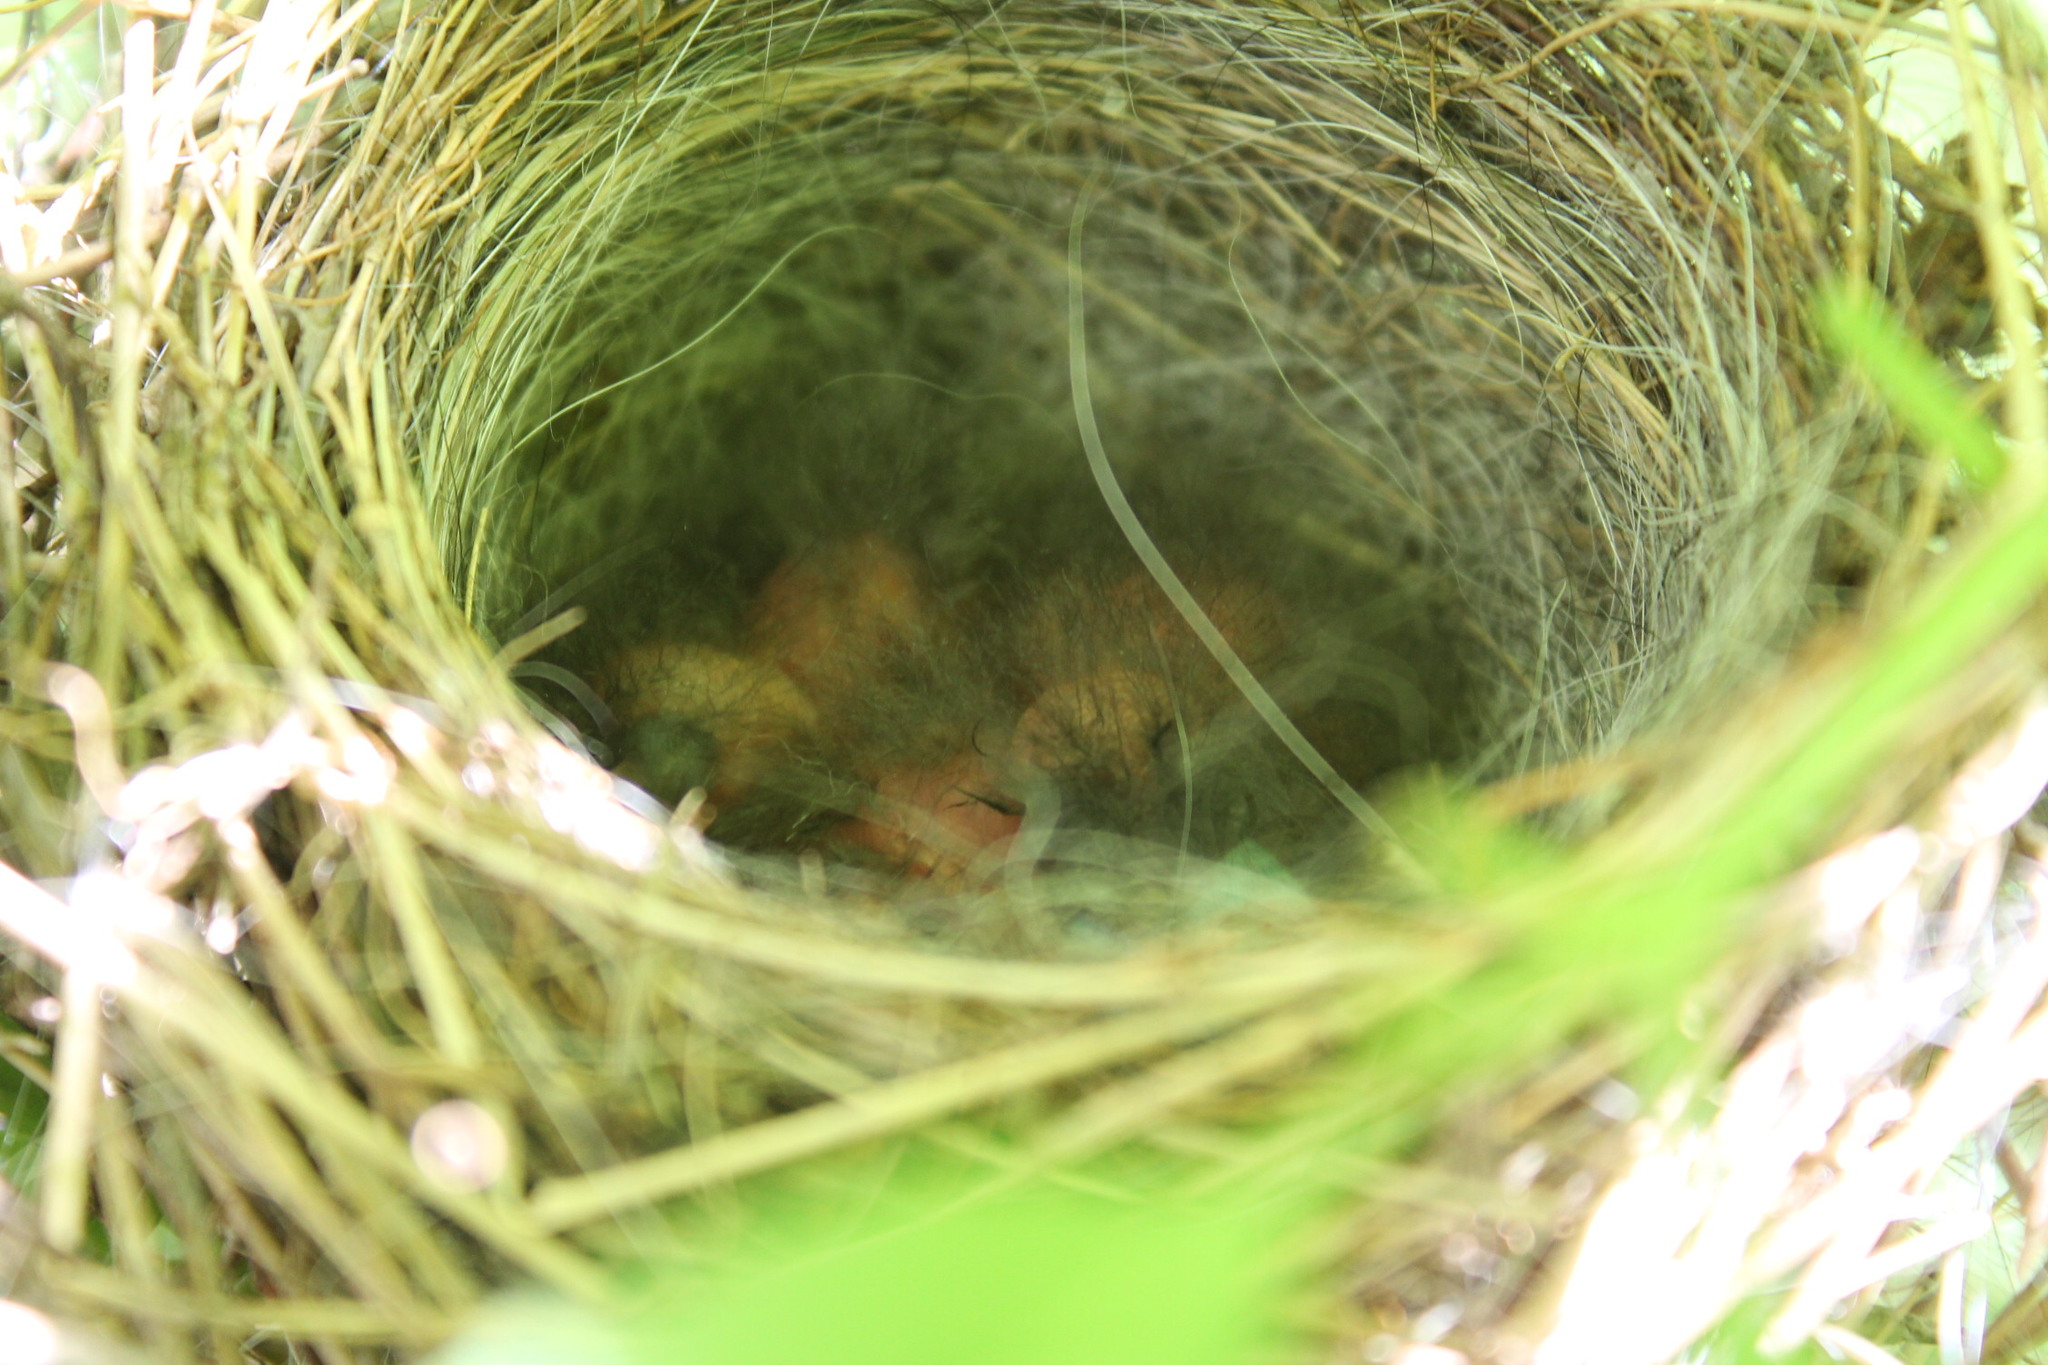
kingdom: Animalia
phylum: Chordata
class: Aves
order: Passeriformes
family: Passerellidae
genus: Spizella
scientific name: Spizella passerina
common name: Chipping sparrow
